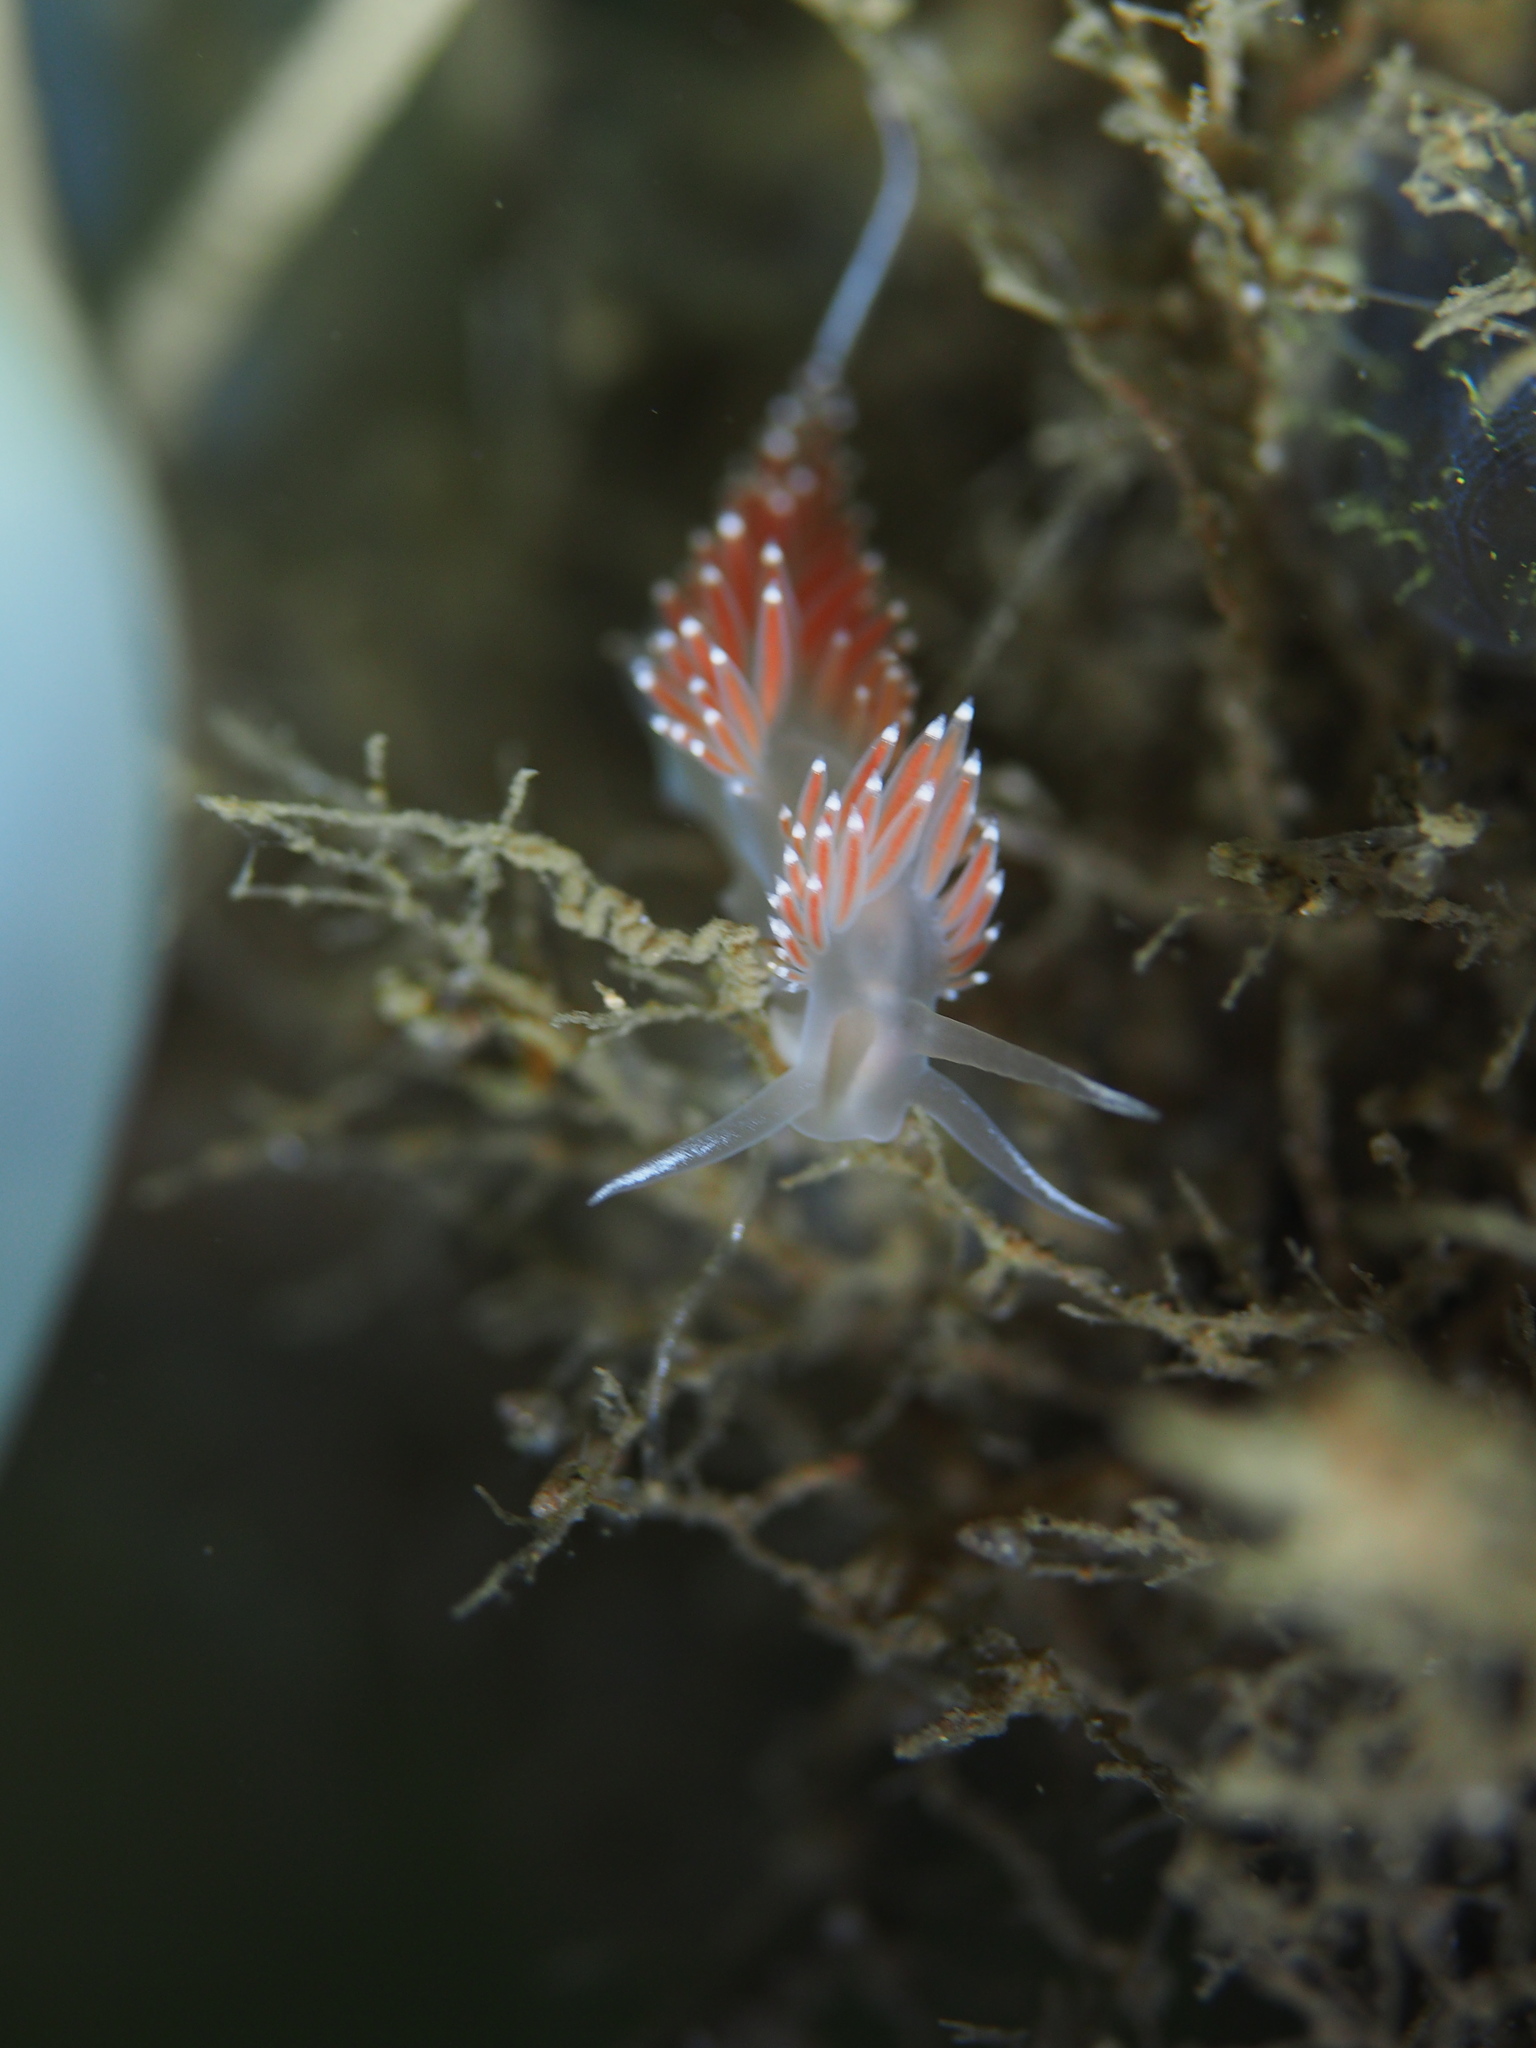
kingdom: Animalia
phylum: Mollusca
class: Gastropoda
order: Nudibranchia
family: Coryphellidae
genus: Coryphella
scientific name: Coryphella verrucosa
